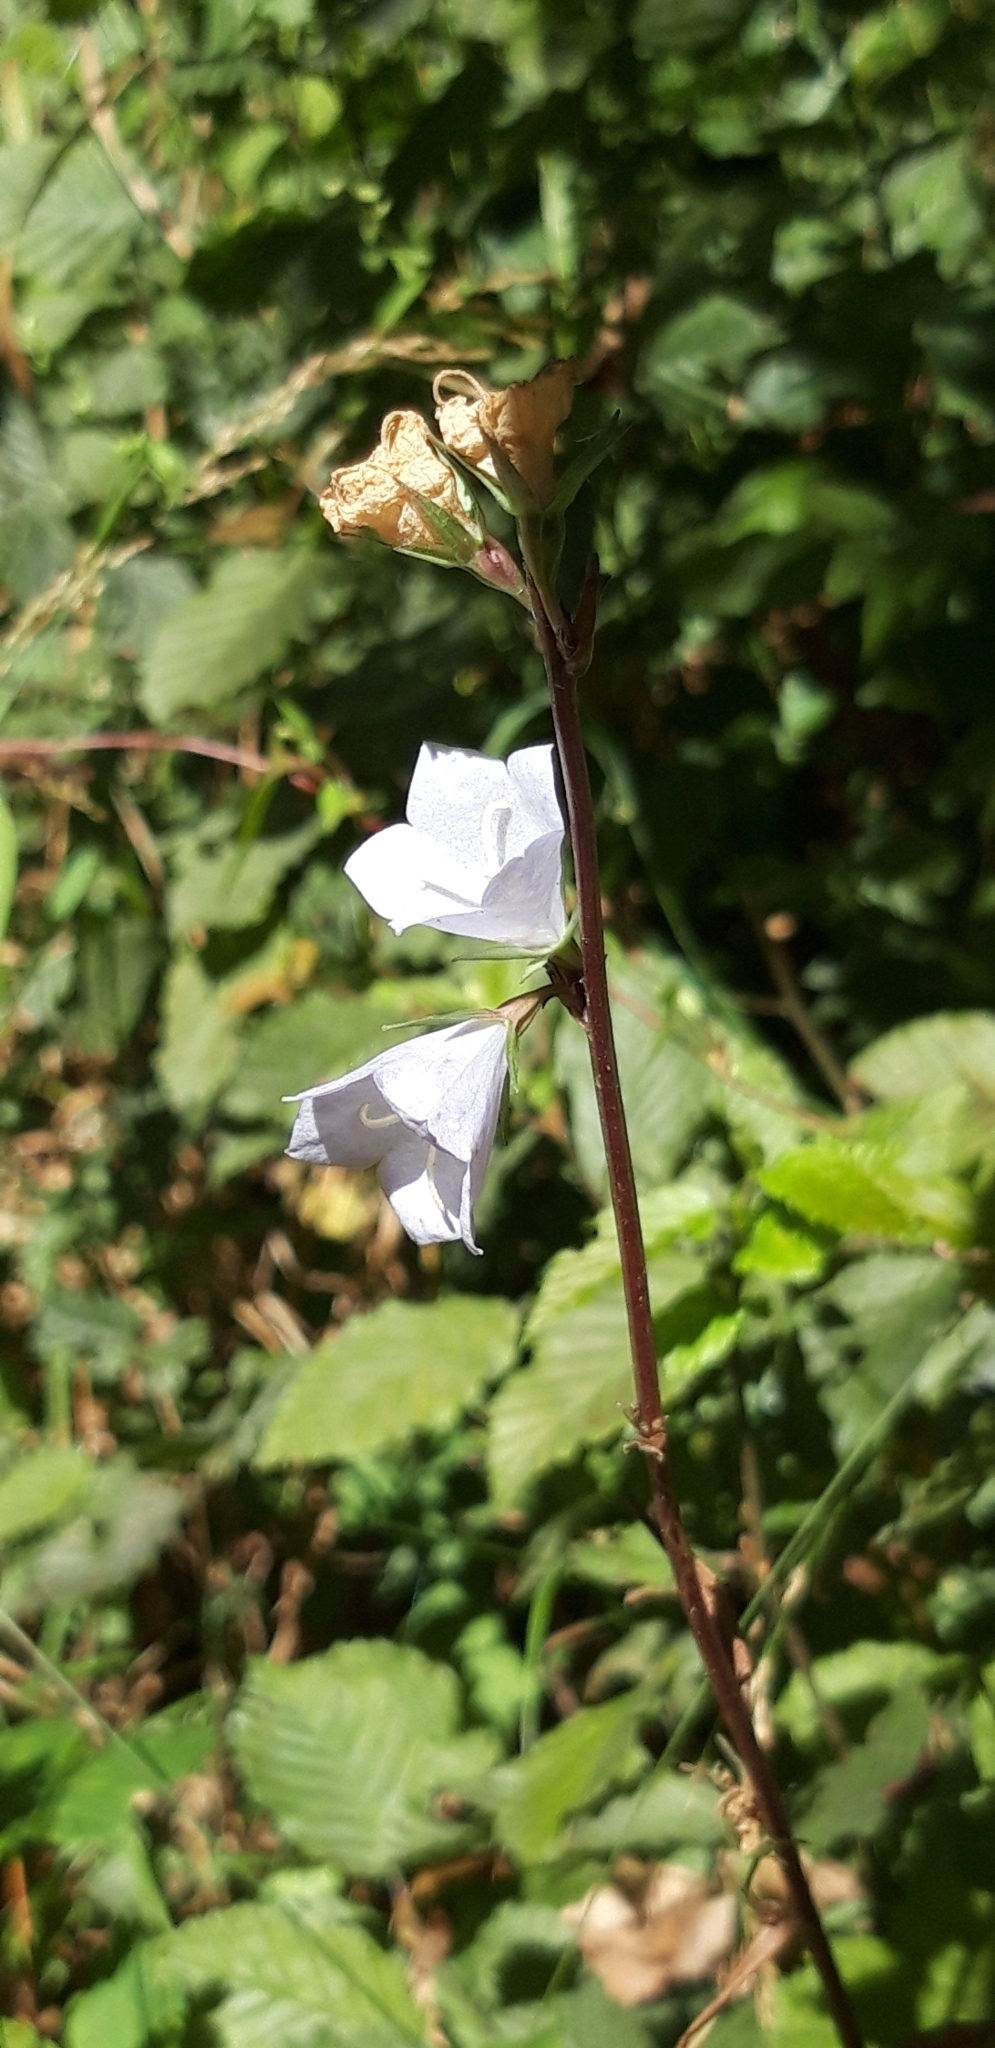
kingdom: Plantae
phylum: Tracheophyta
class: Magnoliopsida
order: Asterales
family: Campanulaceae
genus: Campanula
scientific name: Campanula persicifolia
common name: Peach-leaved bellflower
